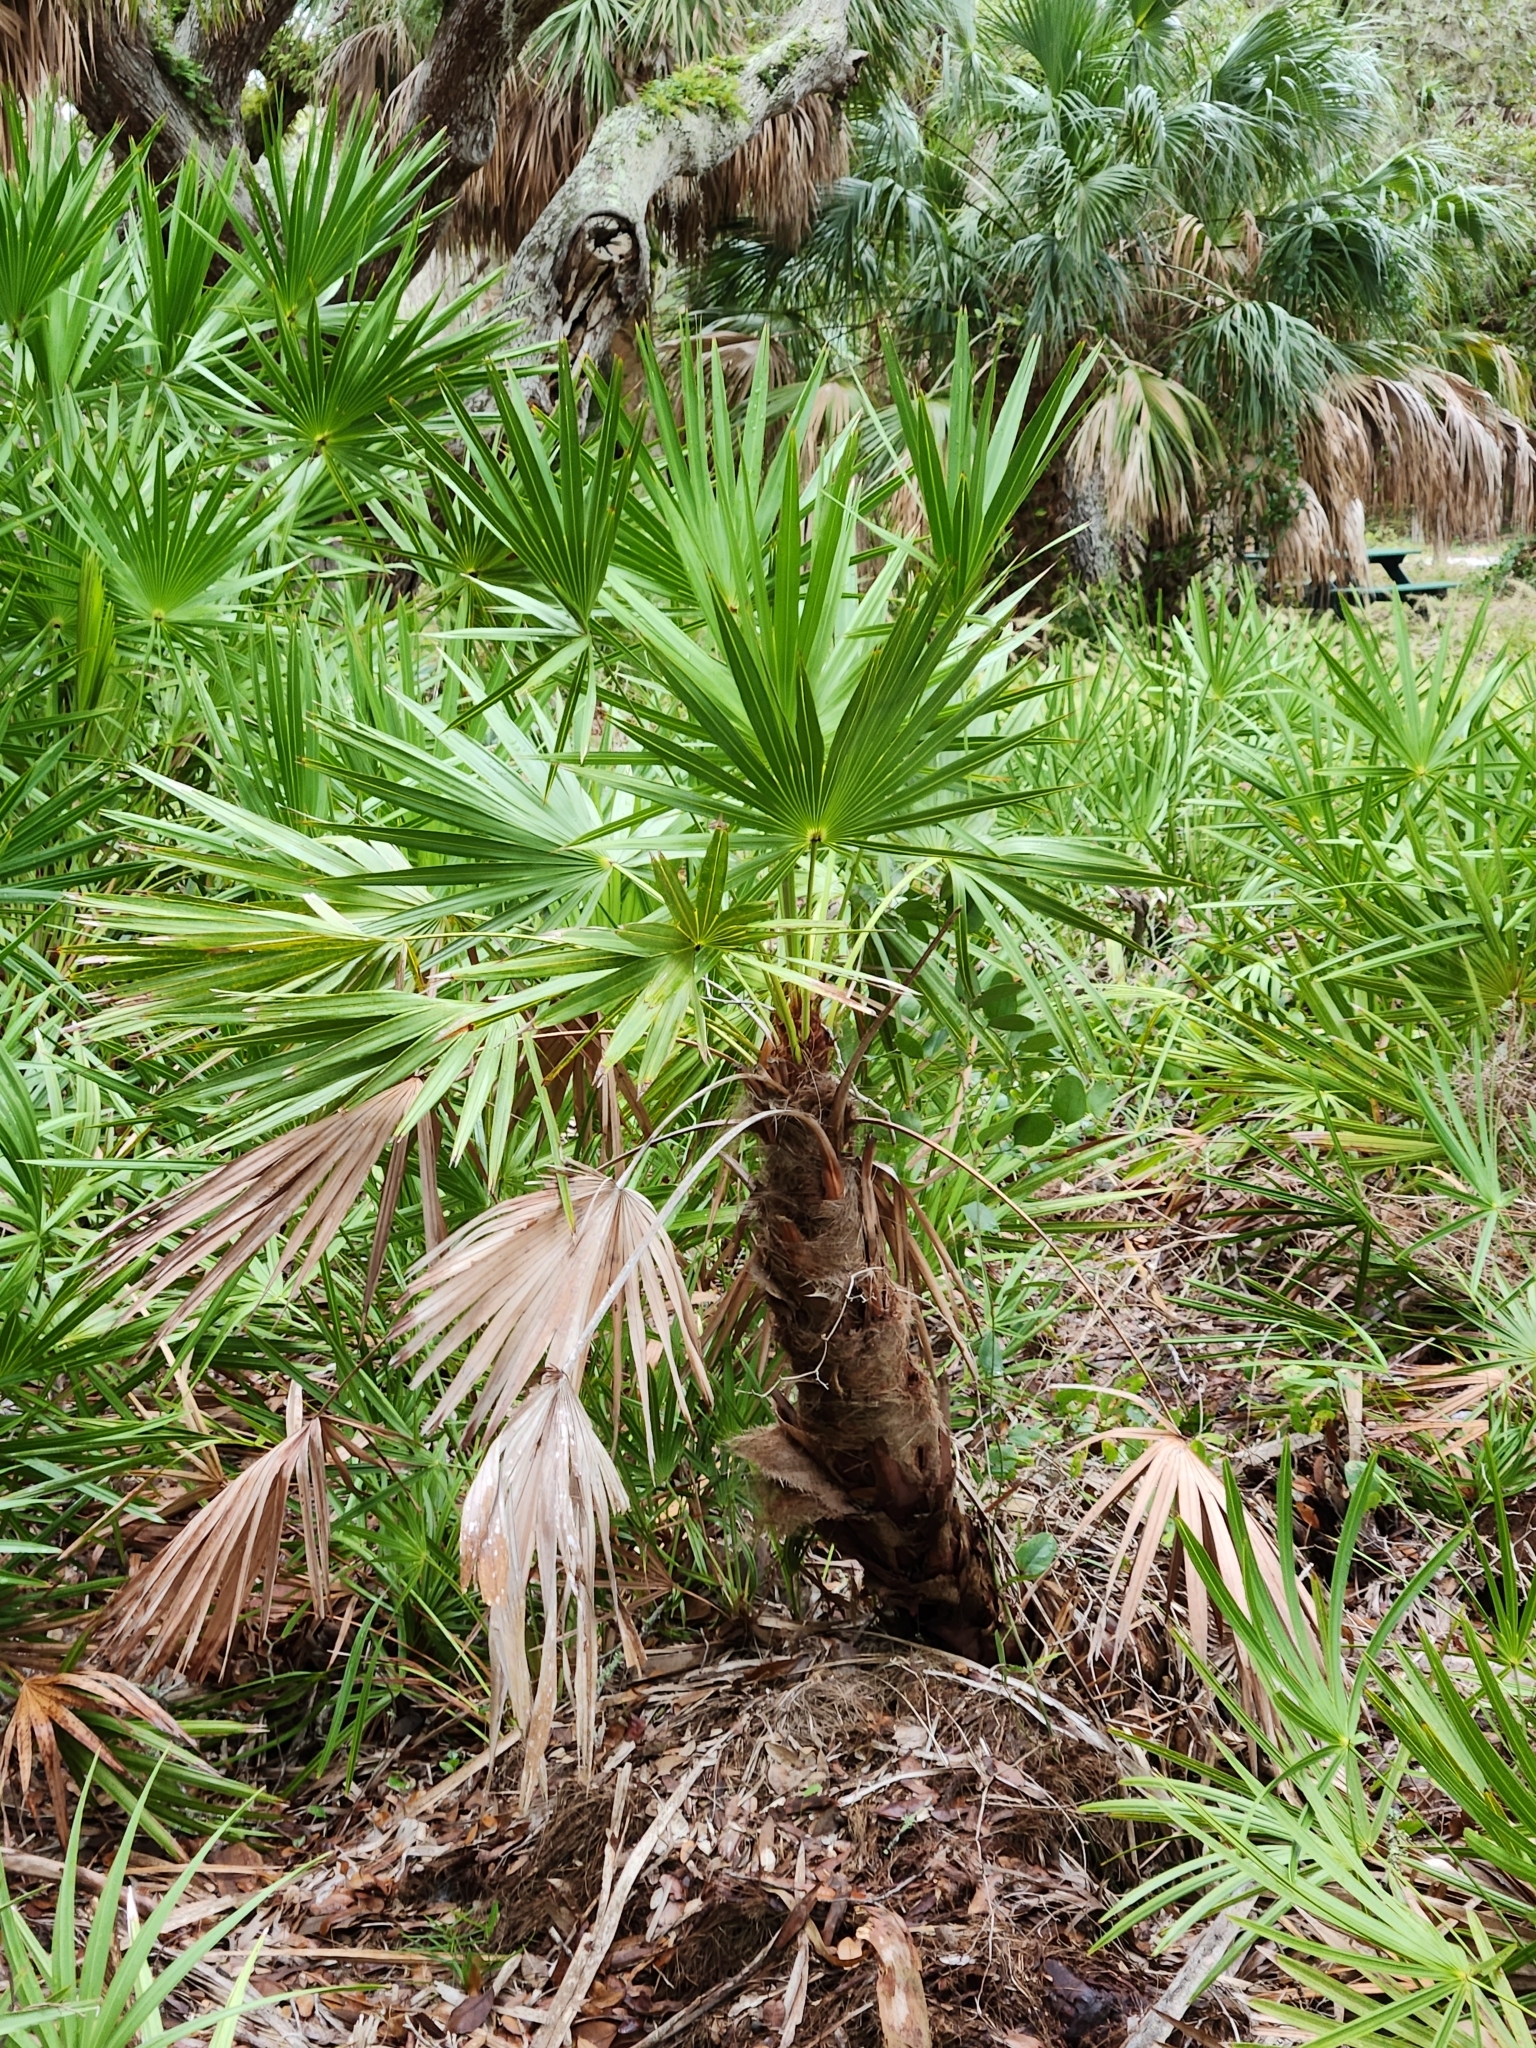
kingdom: Plantae
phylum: Tracheophyta
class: Liliopsida
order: Arecales
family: Arecaceae
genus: Serenoa
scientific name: Serenoa repens
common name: Saw-palmetto
